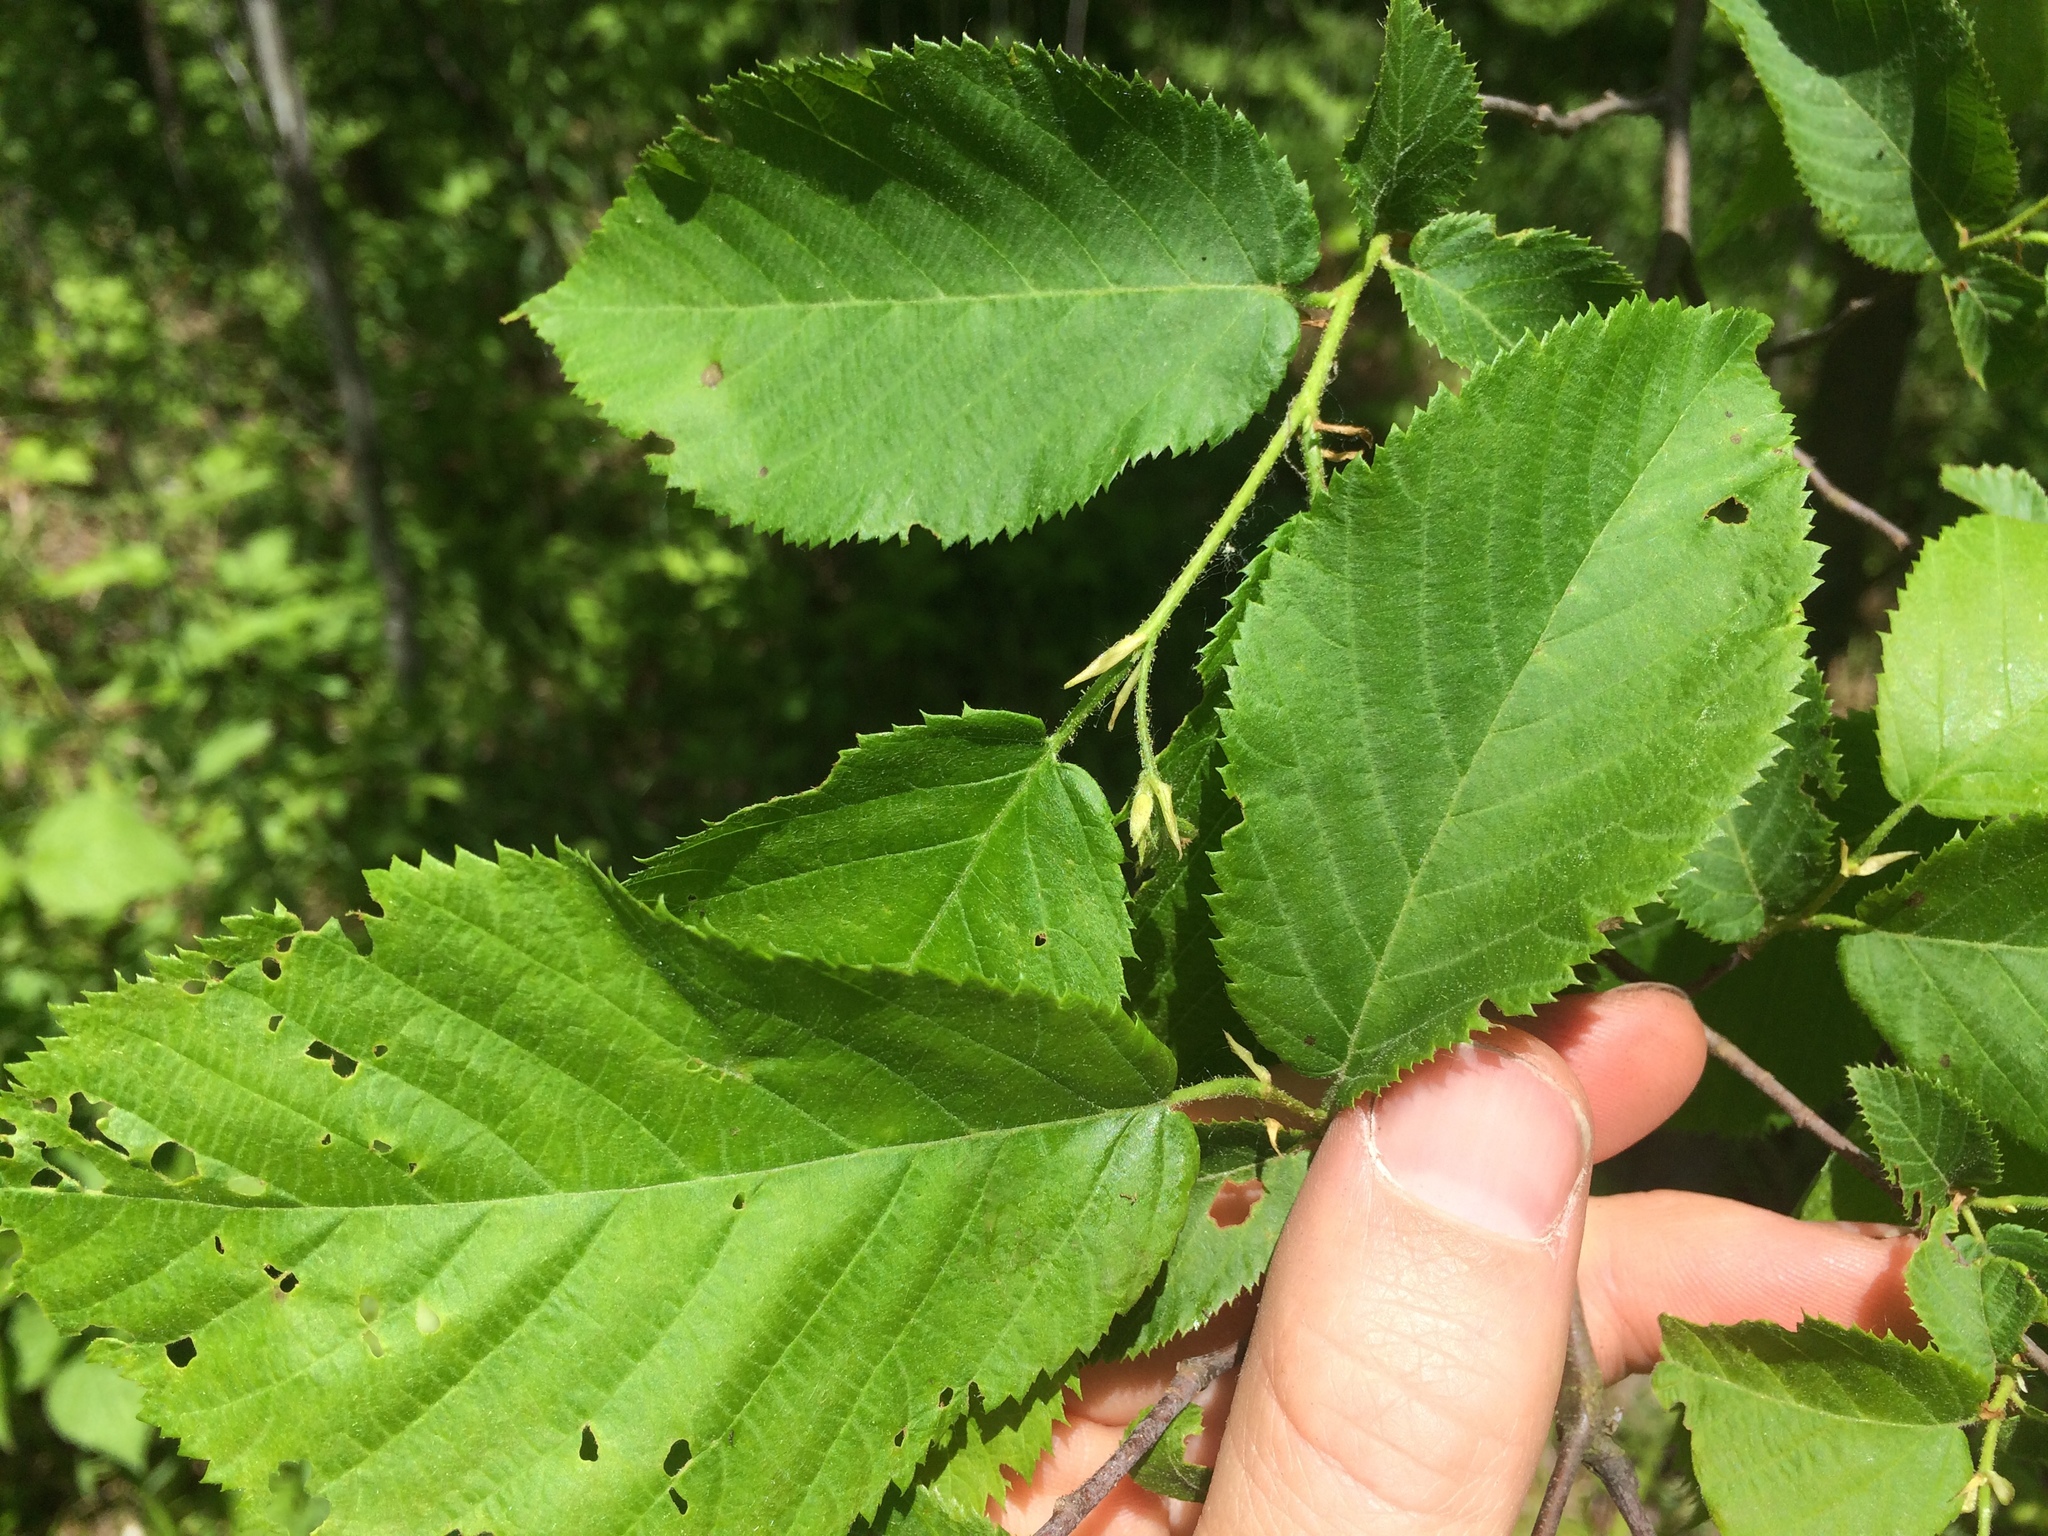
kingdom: Plantae
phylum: Tracheophyta
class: Magnoliopsida
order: Fagales
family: Betulaceae
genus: Betula
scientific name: Betula alleghaniensis
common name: Yellow birch
